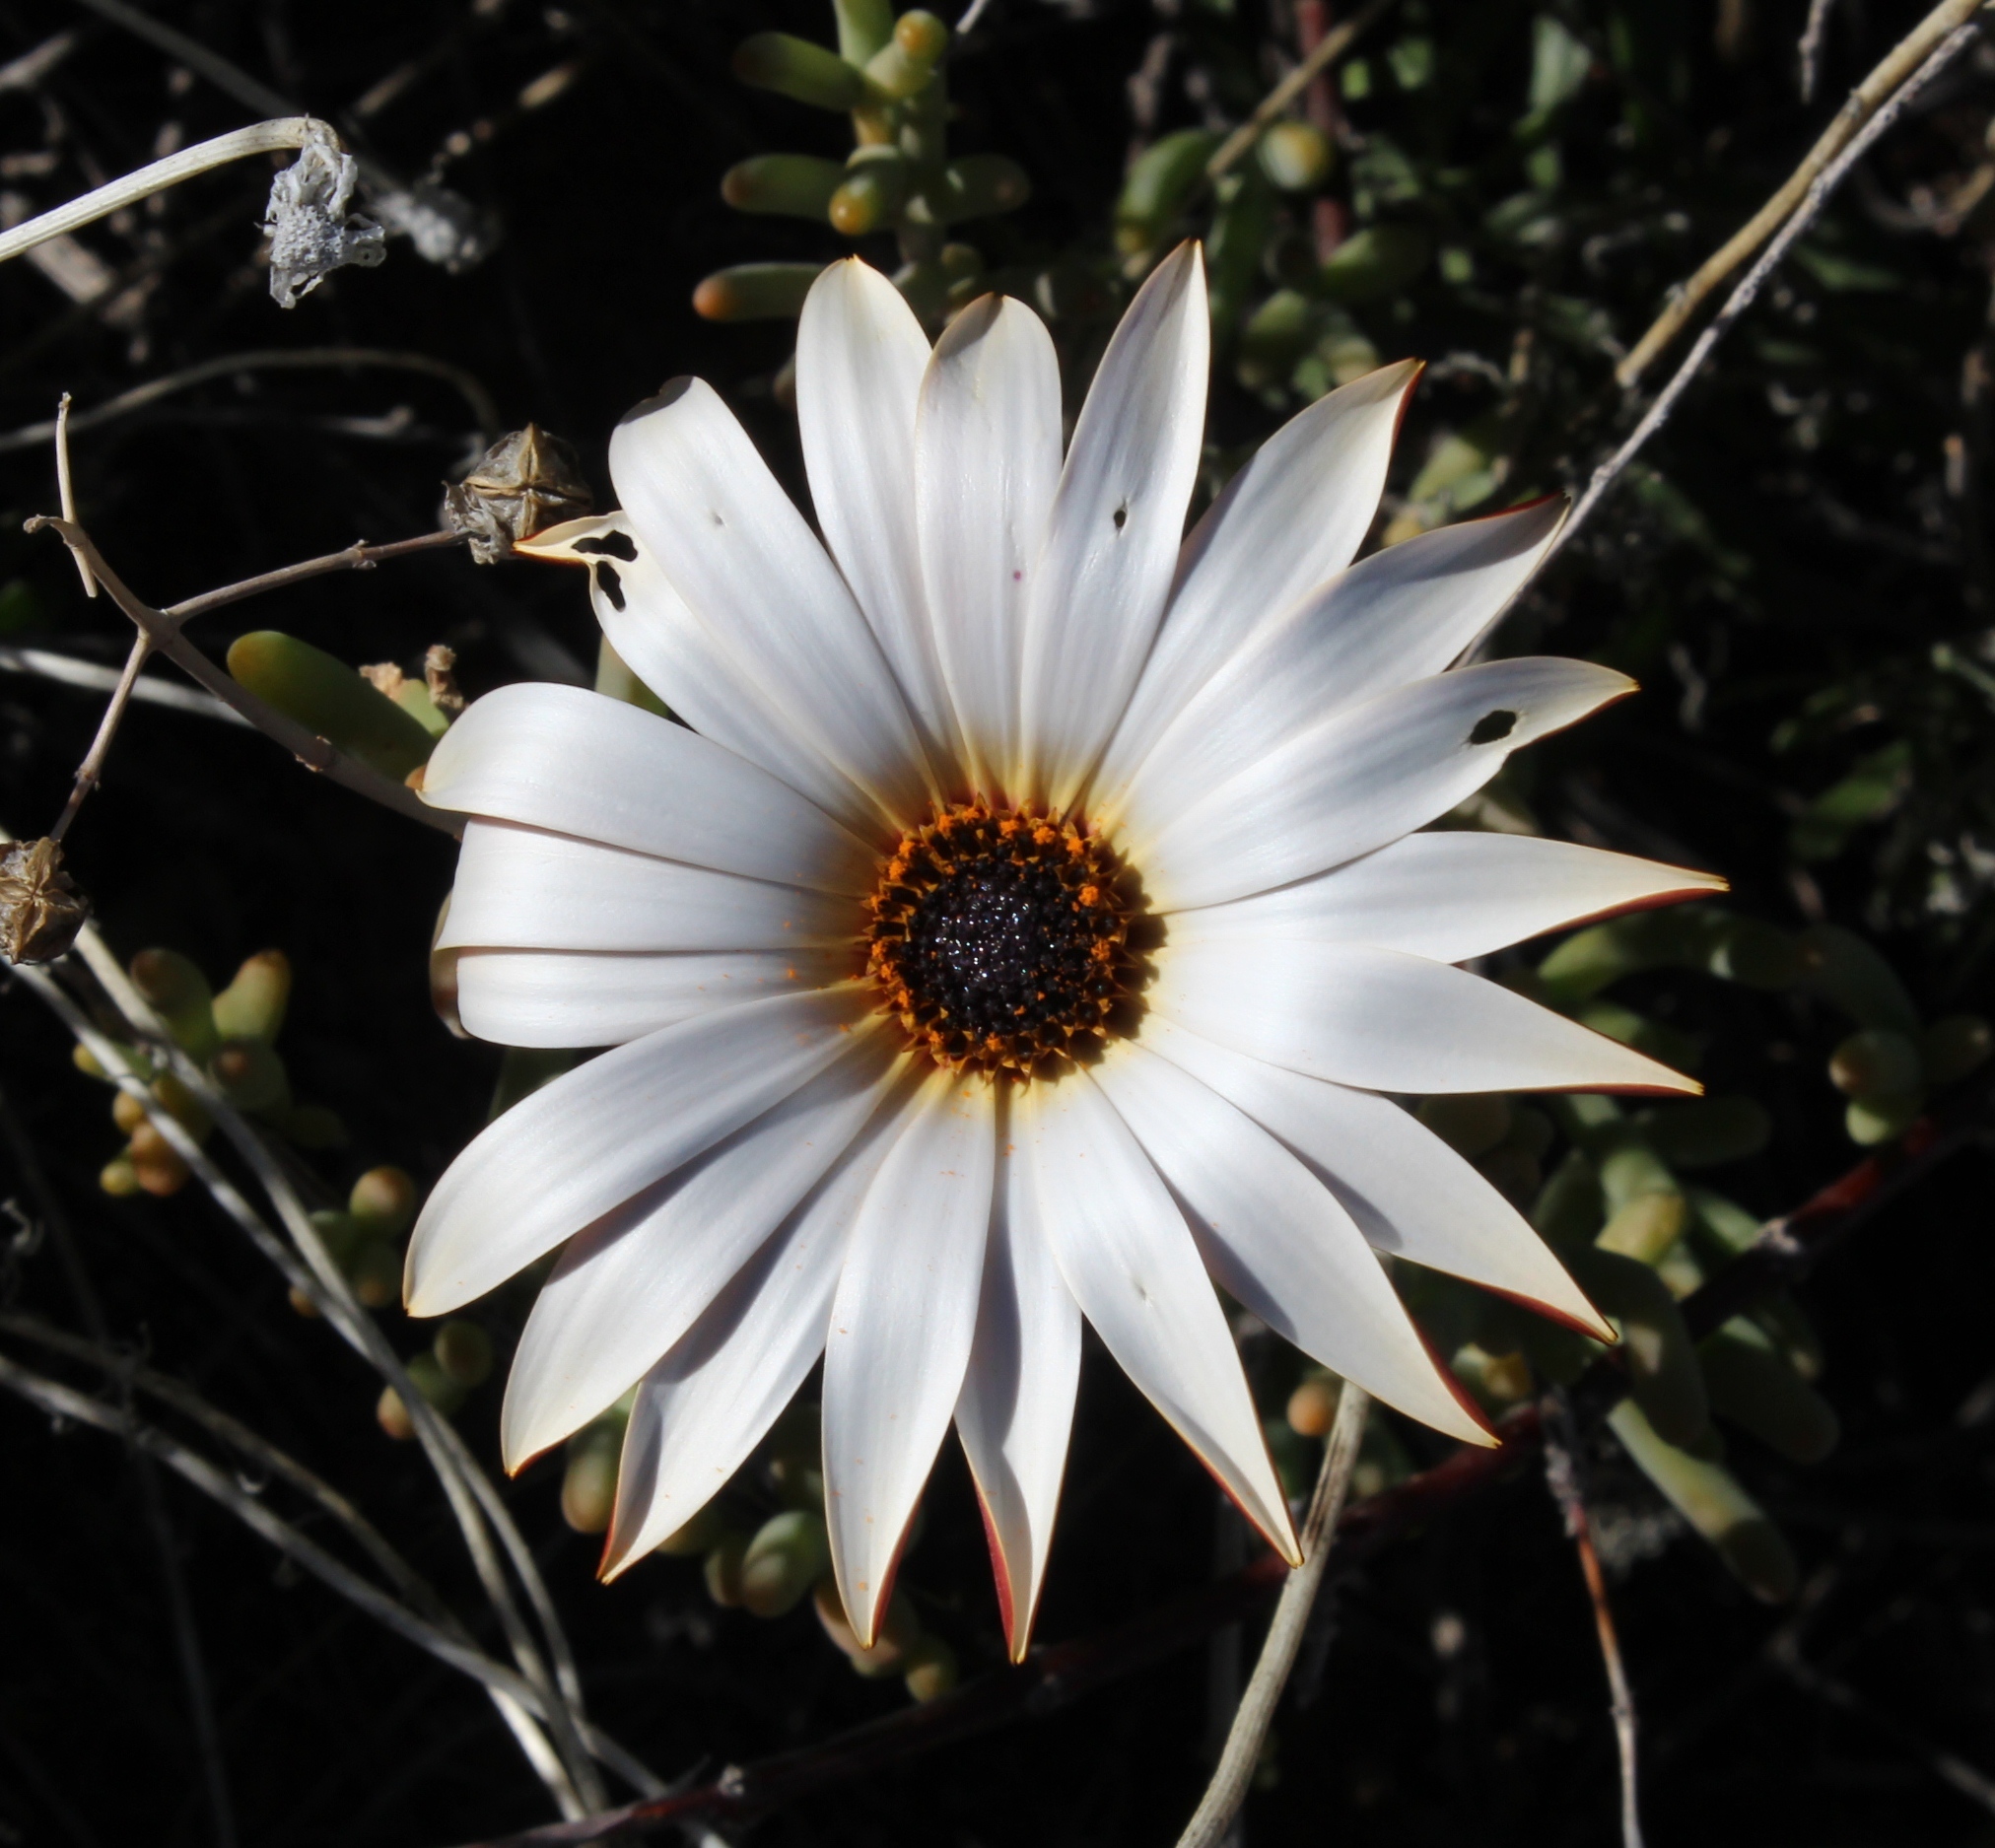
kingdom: Plantae
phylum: Tracheophyta
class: Magnoliopsida
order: Asterales
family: Asteraceae
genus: Dimorphotheca
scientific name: Dimorphotheca nudicaulis
